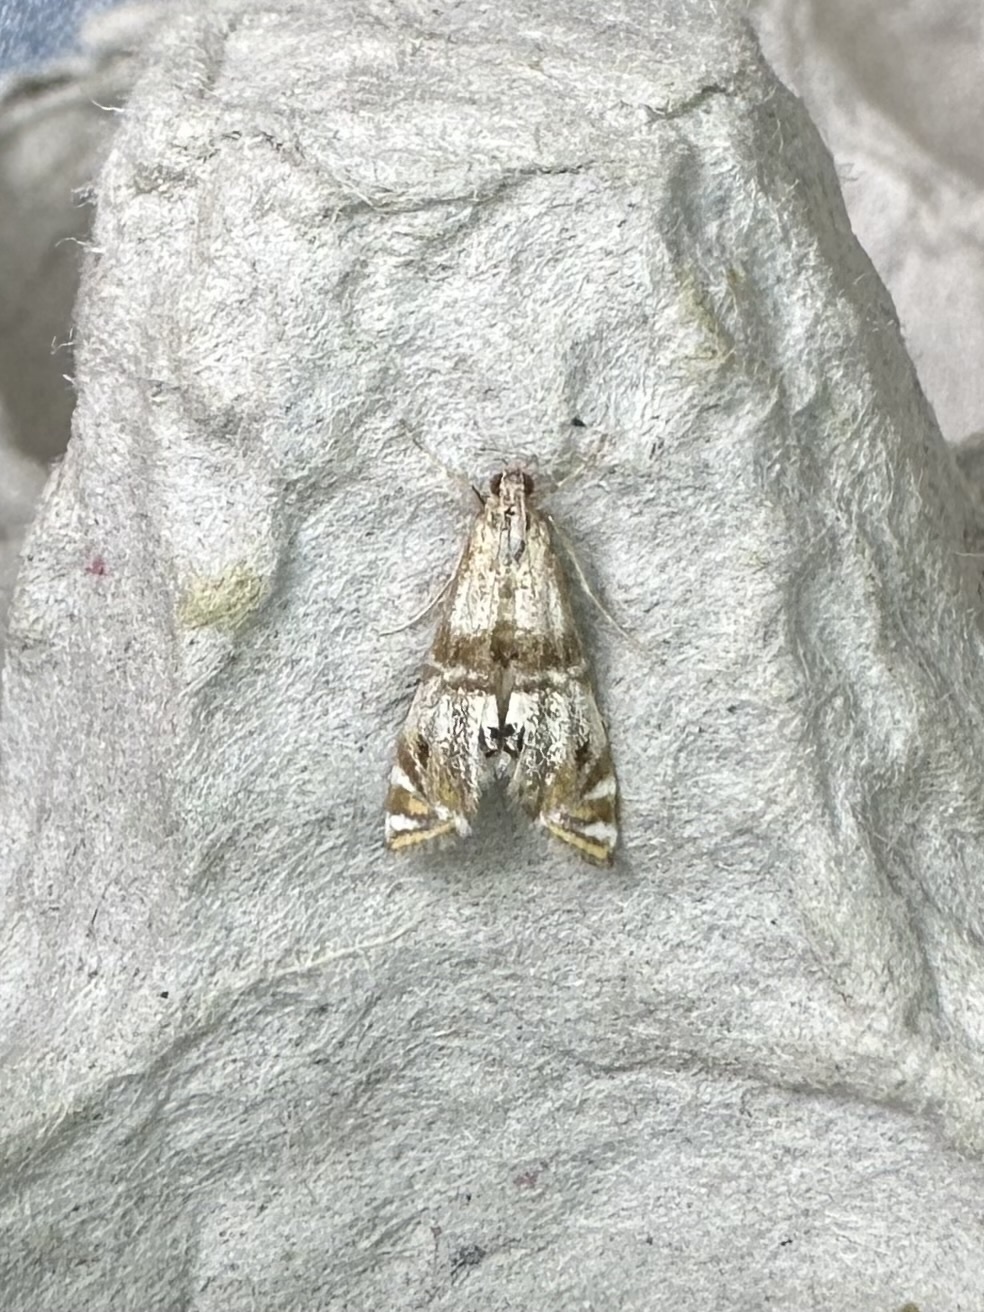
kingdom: Animalia
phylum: Arthropoda
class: Insecta
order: Lepidoptera
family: Crambidae
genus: Petrophila
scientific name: Petrophila bifascialis
